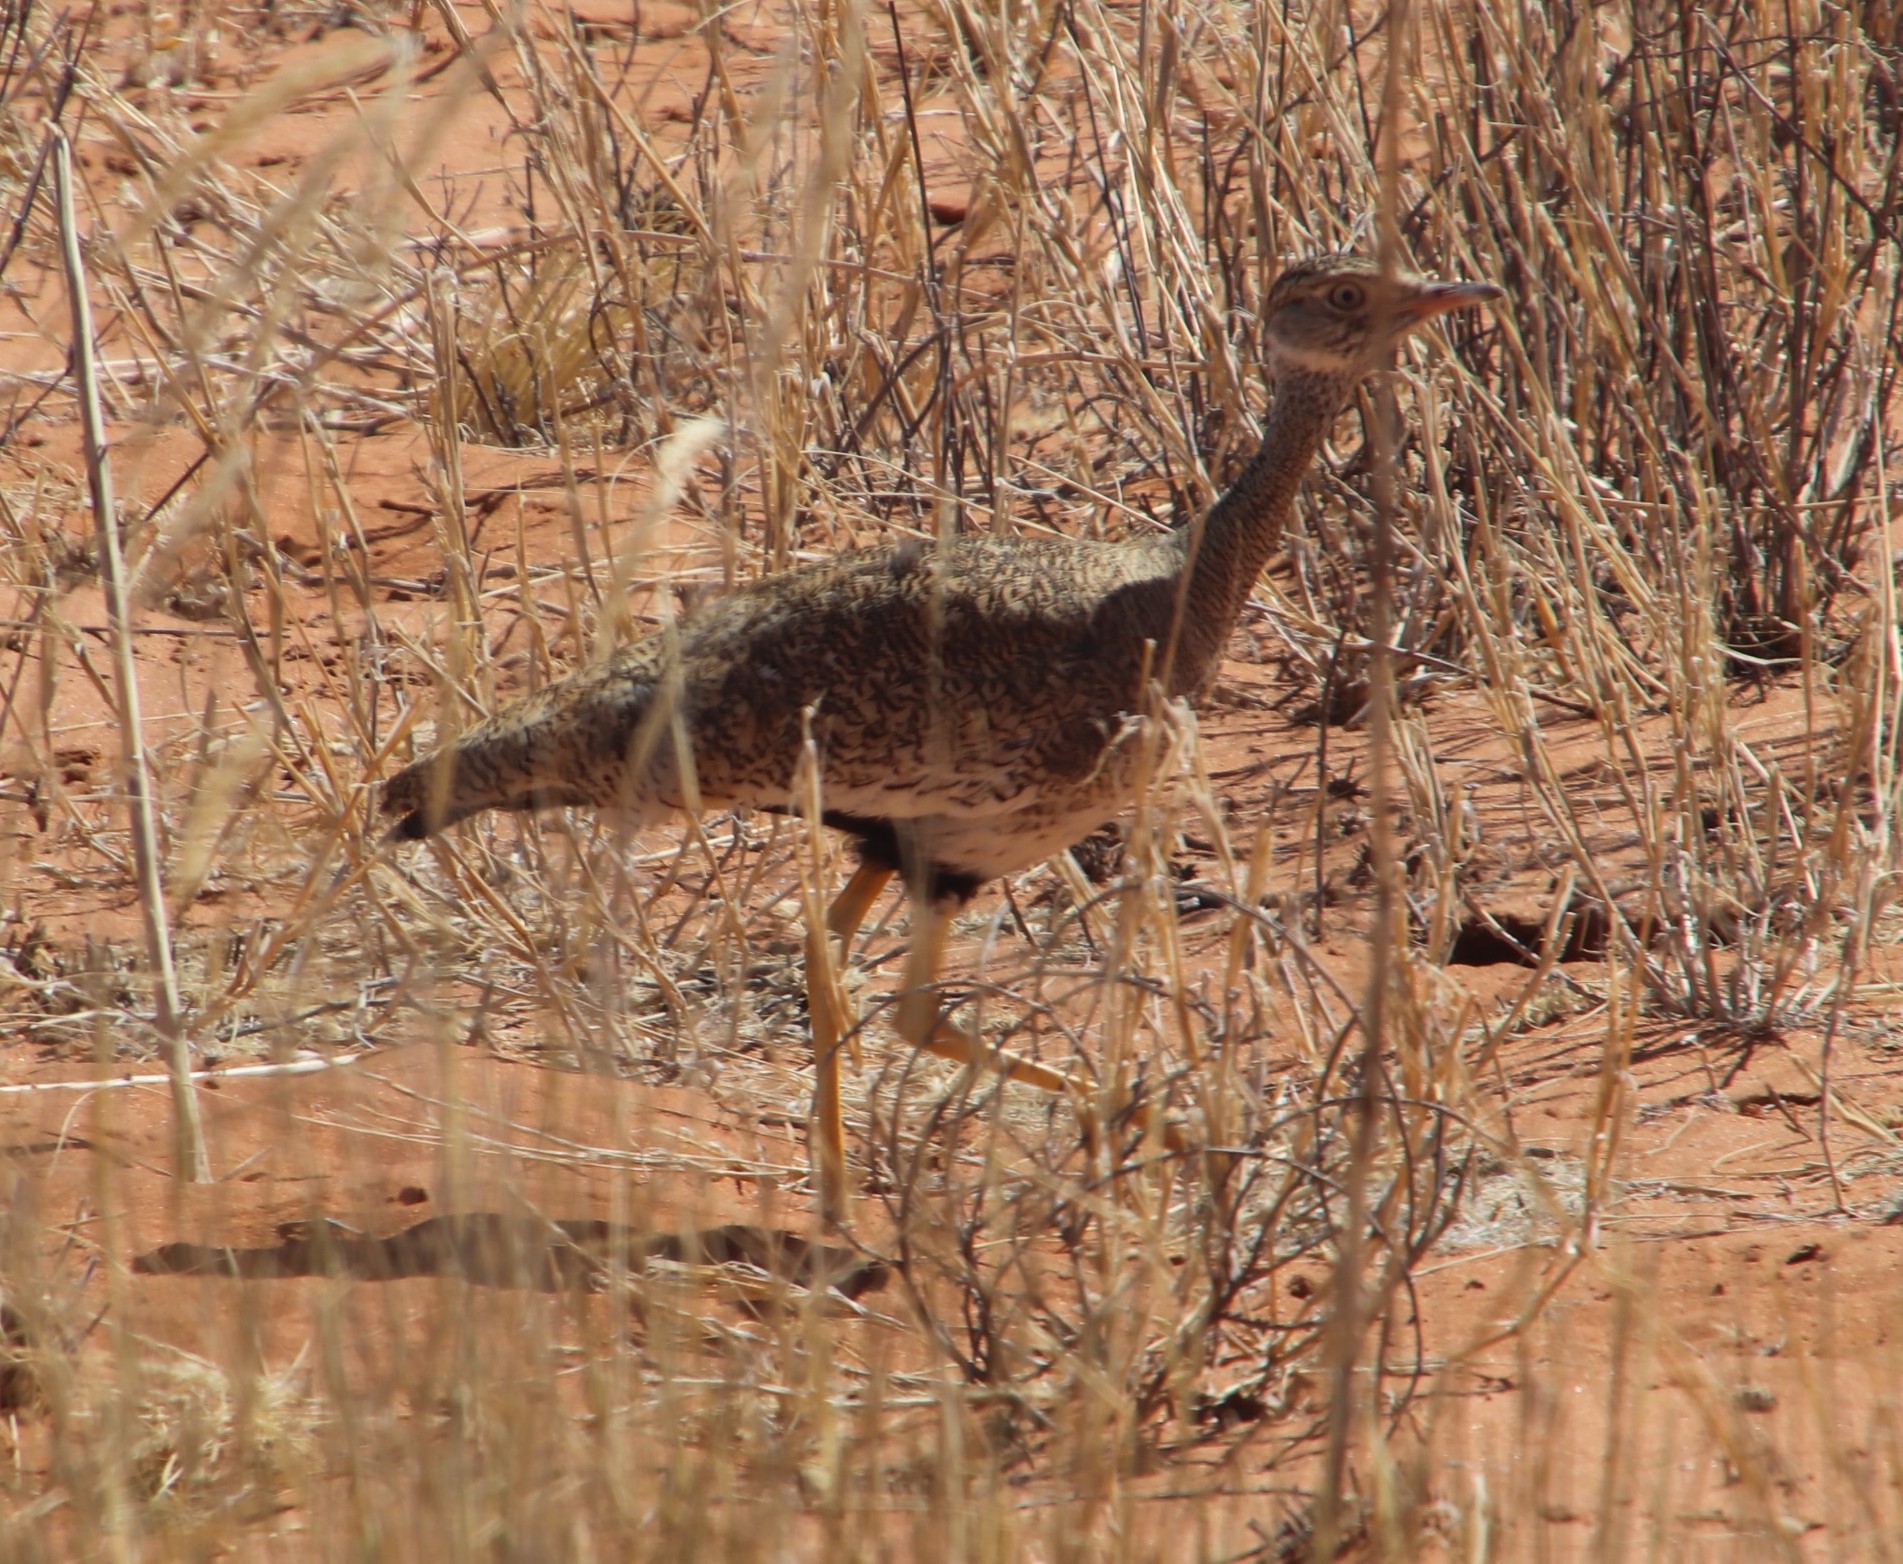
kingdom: Animalia
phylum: Chordata
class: Aves
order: Otidiformes
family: Otididae
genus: Afrotis
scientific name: Afrotis afraoides
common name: Northern black korhaan
